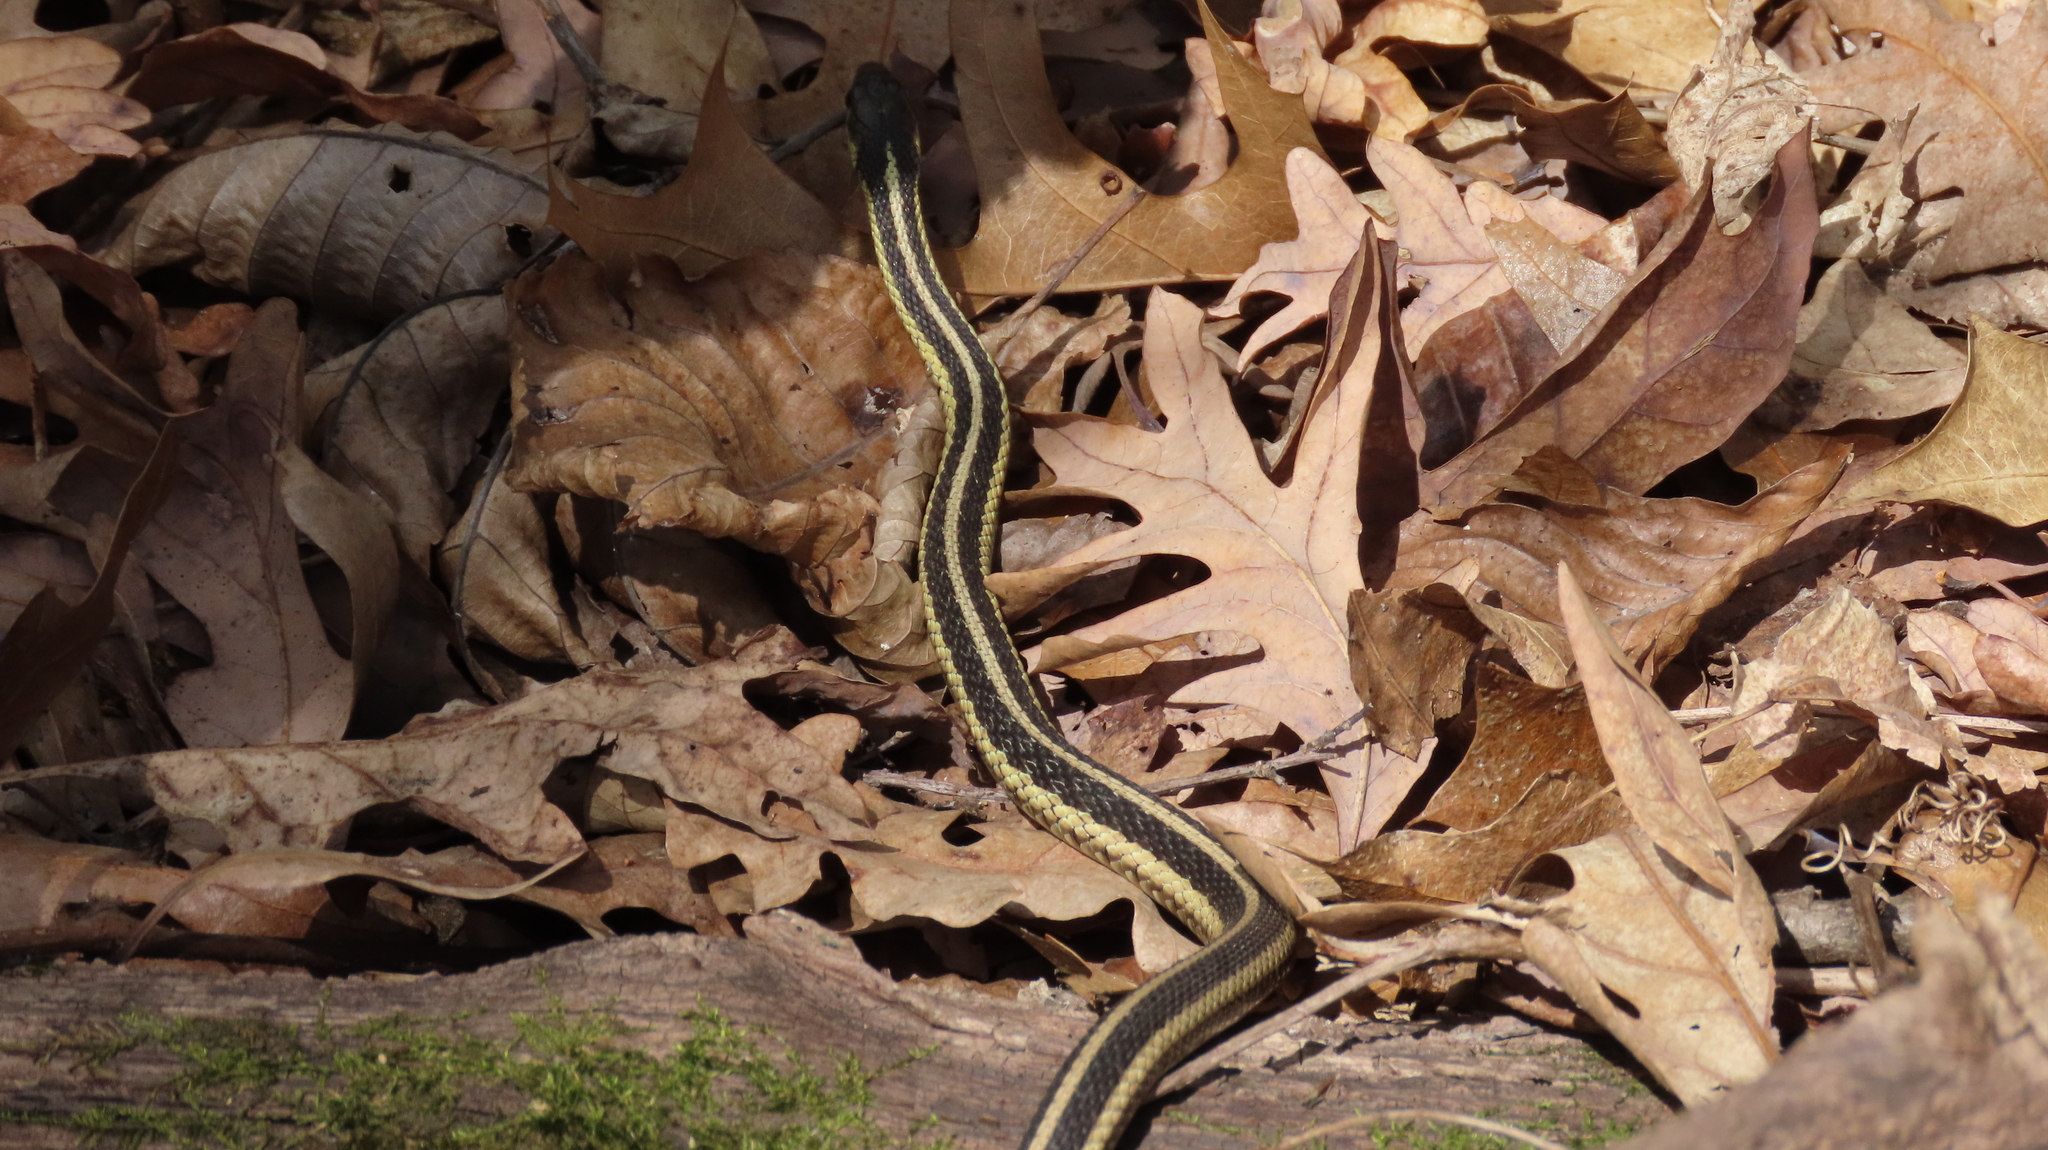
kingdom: Animalia
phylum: Chordata
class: Squamata
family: Colubridae
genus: Thamnophis
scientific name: Thamnophis sirtalis
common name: Common garter snake
